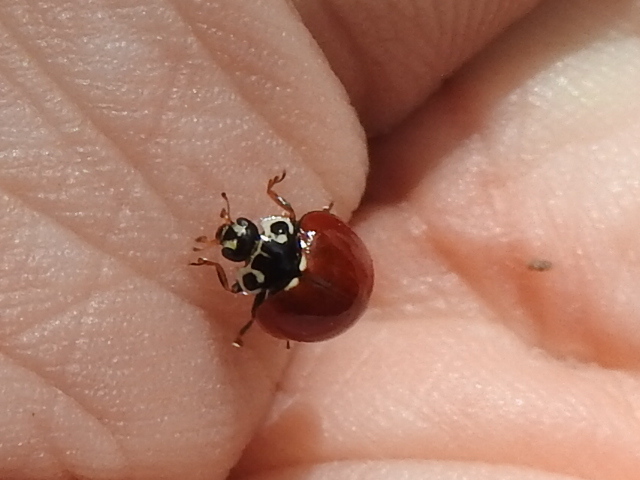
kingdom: Animalia
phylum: Arthropoda
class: Insecta
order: Coleoptera
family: Coccinellidae
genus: Cycloneda
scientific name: Cycloneda polita
